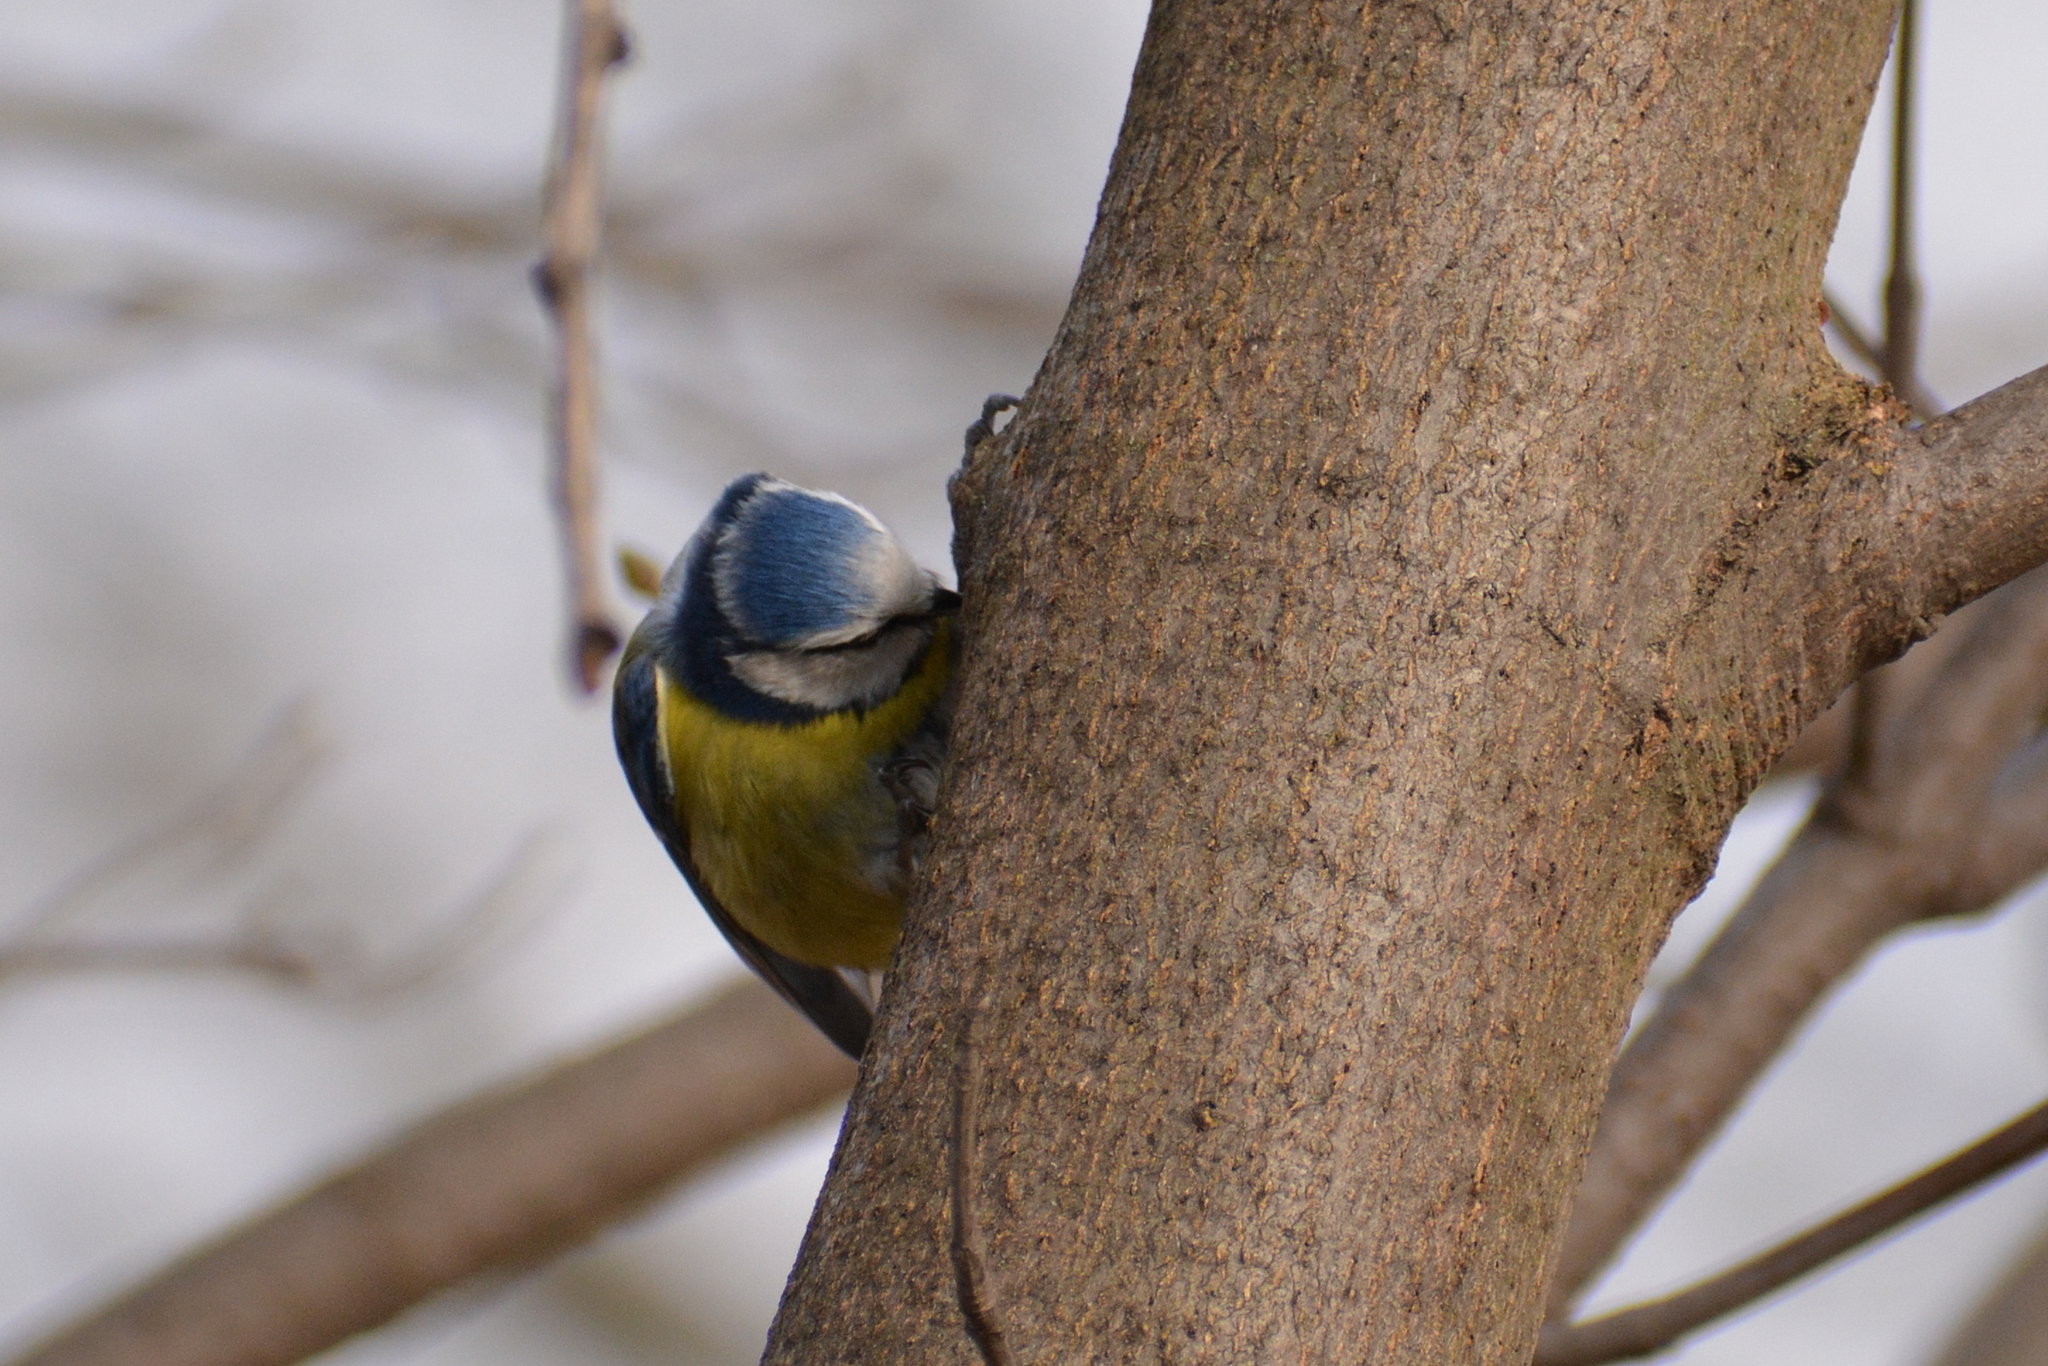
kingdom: Animalia
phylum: Chordata
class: Aves
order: Passeriformes
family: Paridae
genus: Cyanistes
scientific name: Cyanistes caeruleus
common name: Eurasian blue tit
